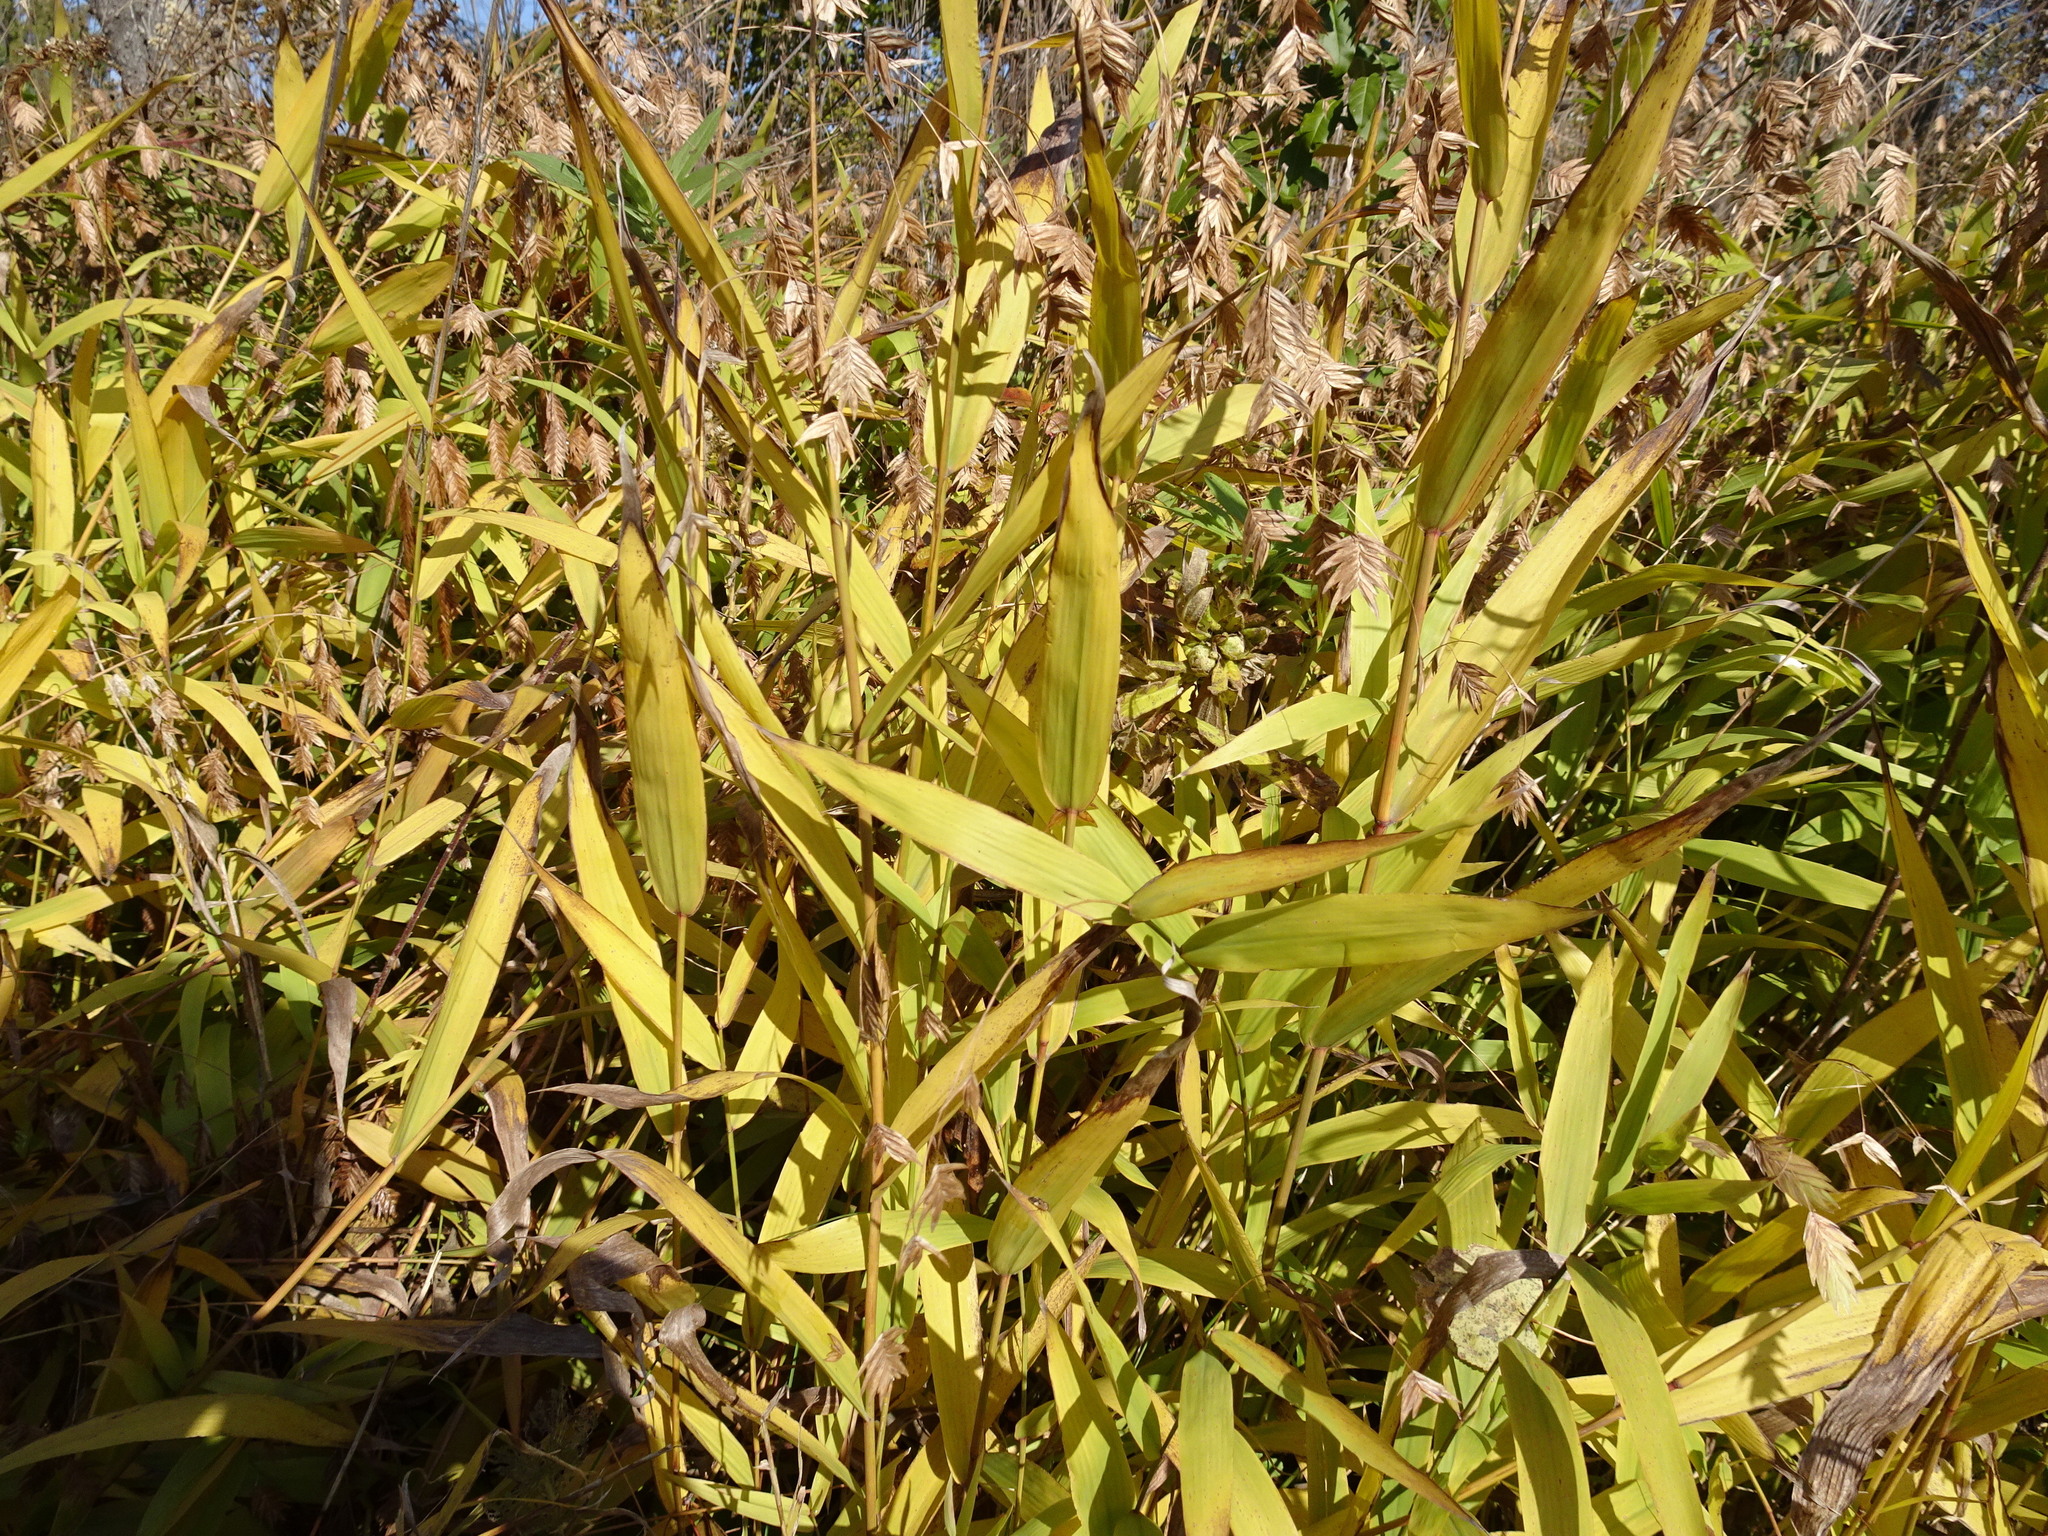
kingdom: Plantae
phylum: Tracheophyta
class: Liliopsida
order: Poales
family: Poaceae
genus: Chasmanthium
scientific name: Chasmanthium latifolium
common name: Broad-leaved chasmanthium
